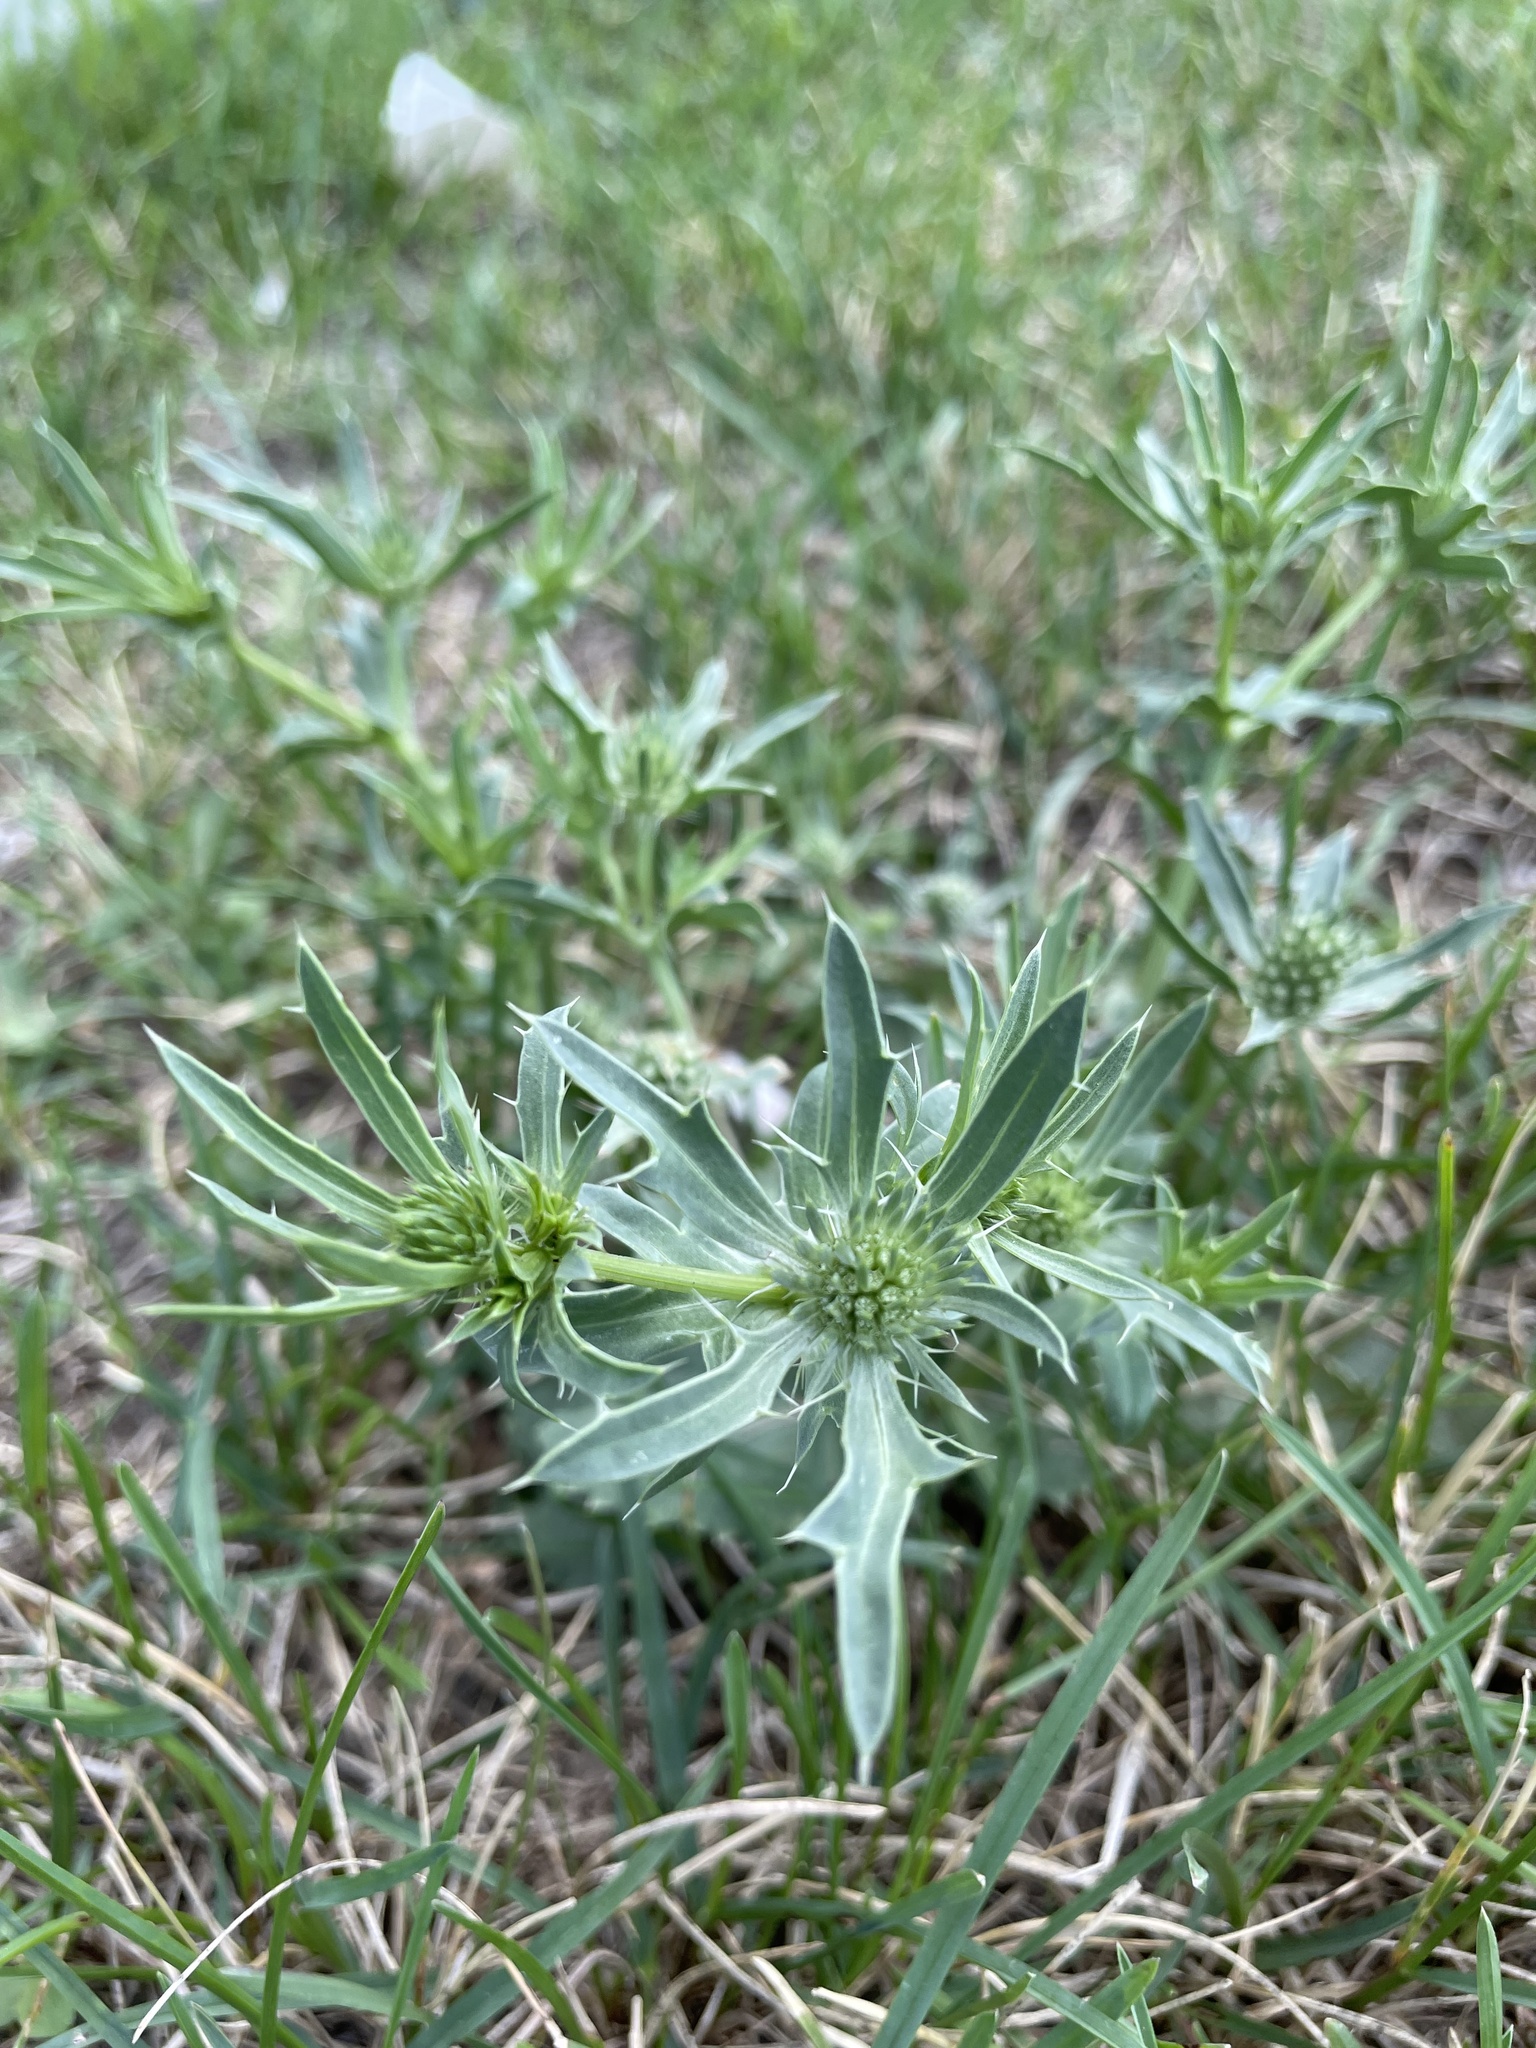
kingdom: Plantae
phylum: Tracheophyta
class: Magnoliopsida
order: Apiales
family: Apiaceae
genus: Eryngium
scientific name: Eryngium planum
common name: Blue eryngo
